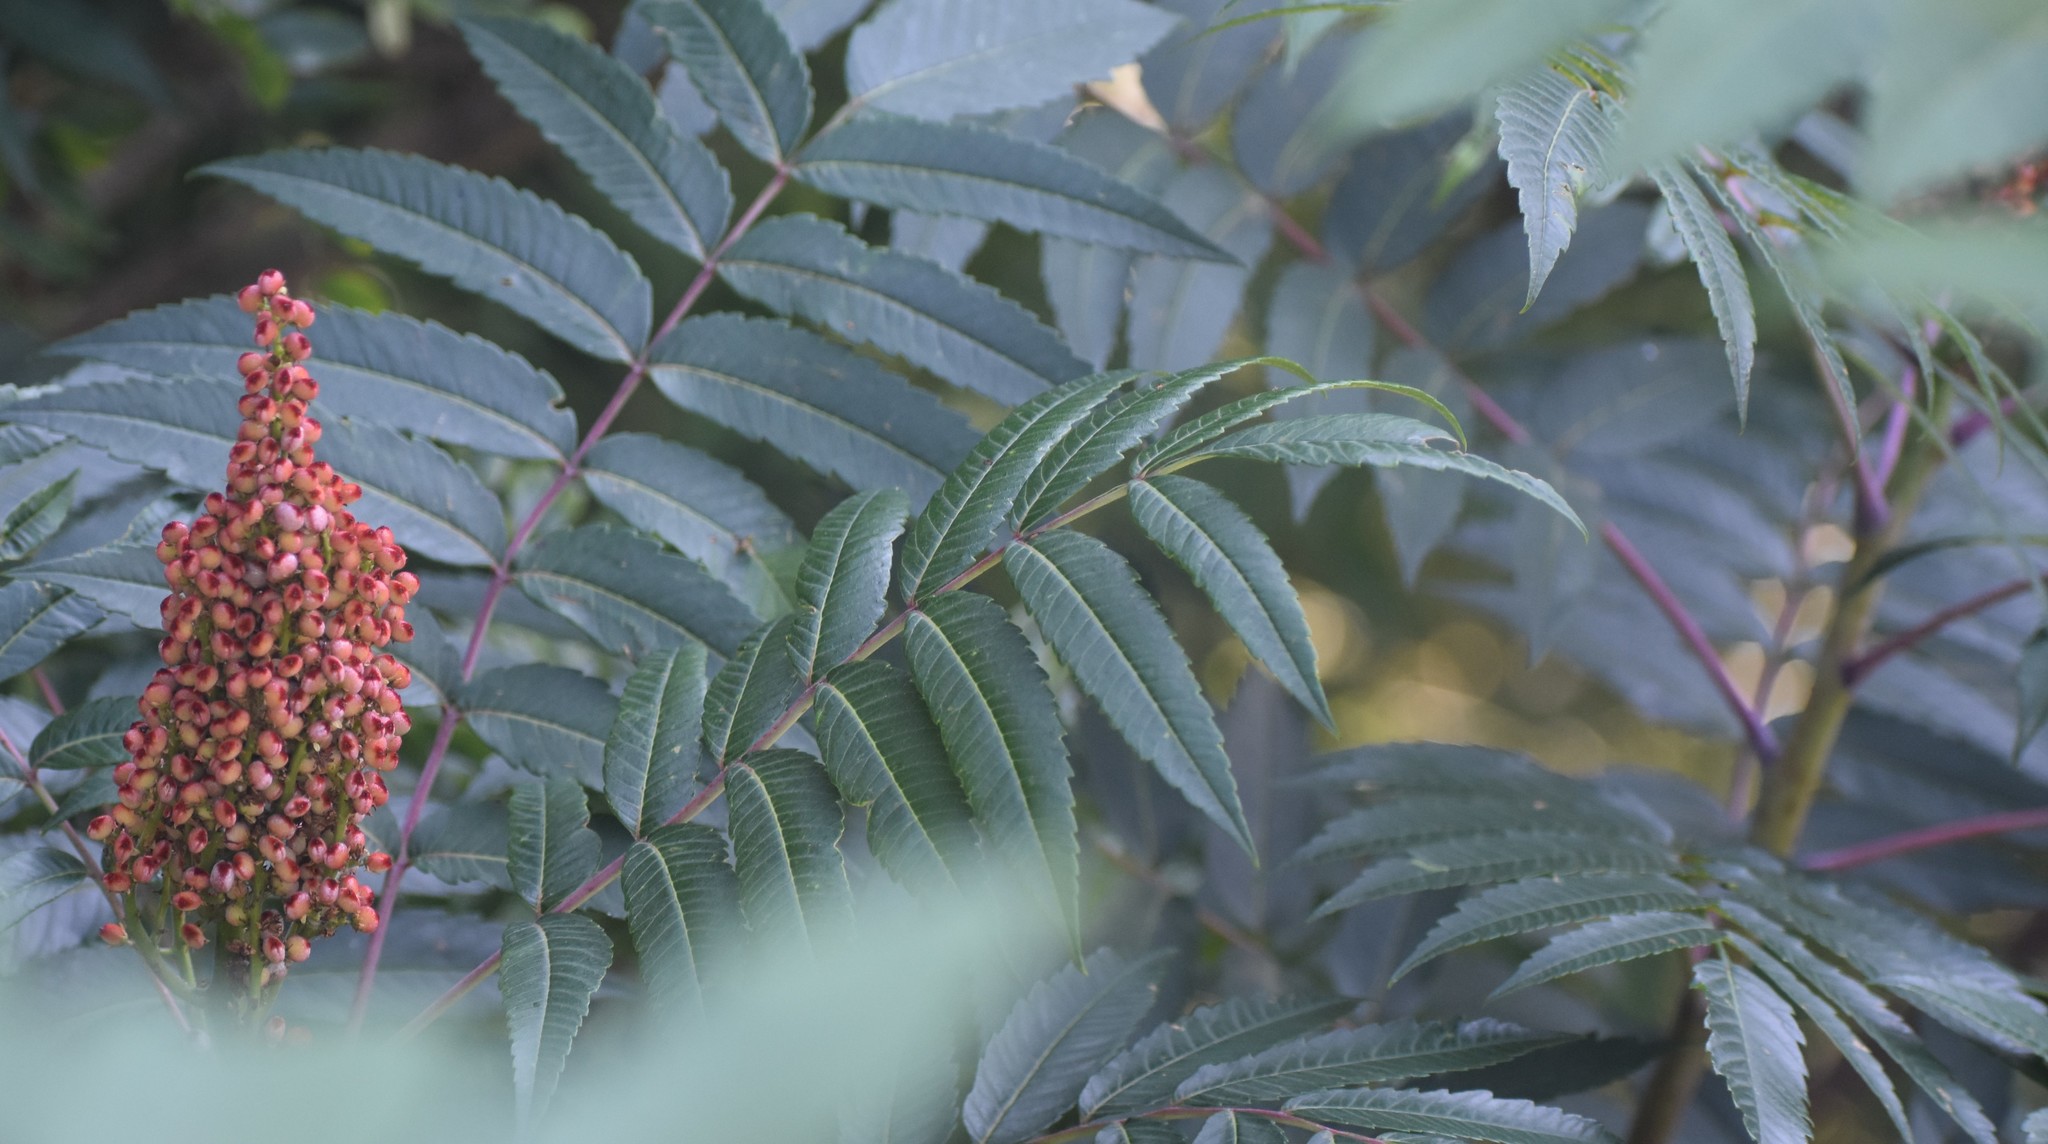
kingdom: Plantae
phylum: Tracheophyta
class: Magnoliopsida
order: Sapindales
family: Anacardiaceae
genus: Rhus
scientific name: Rhus glabra
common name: Scarlet sumac
